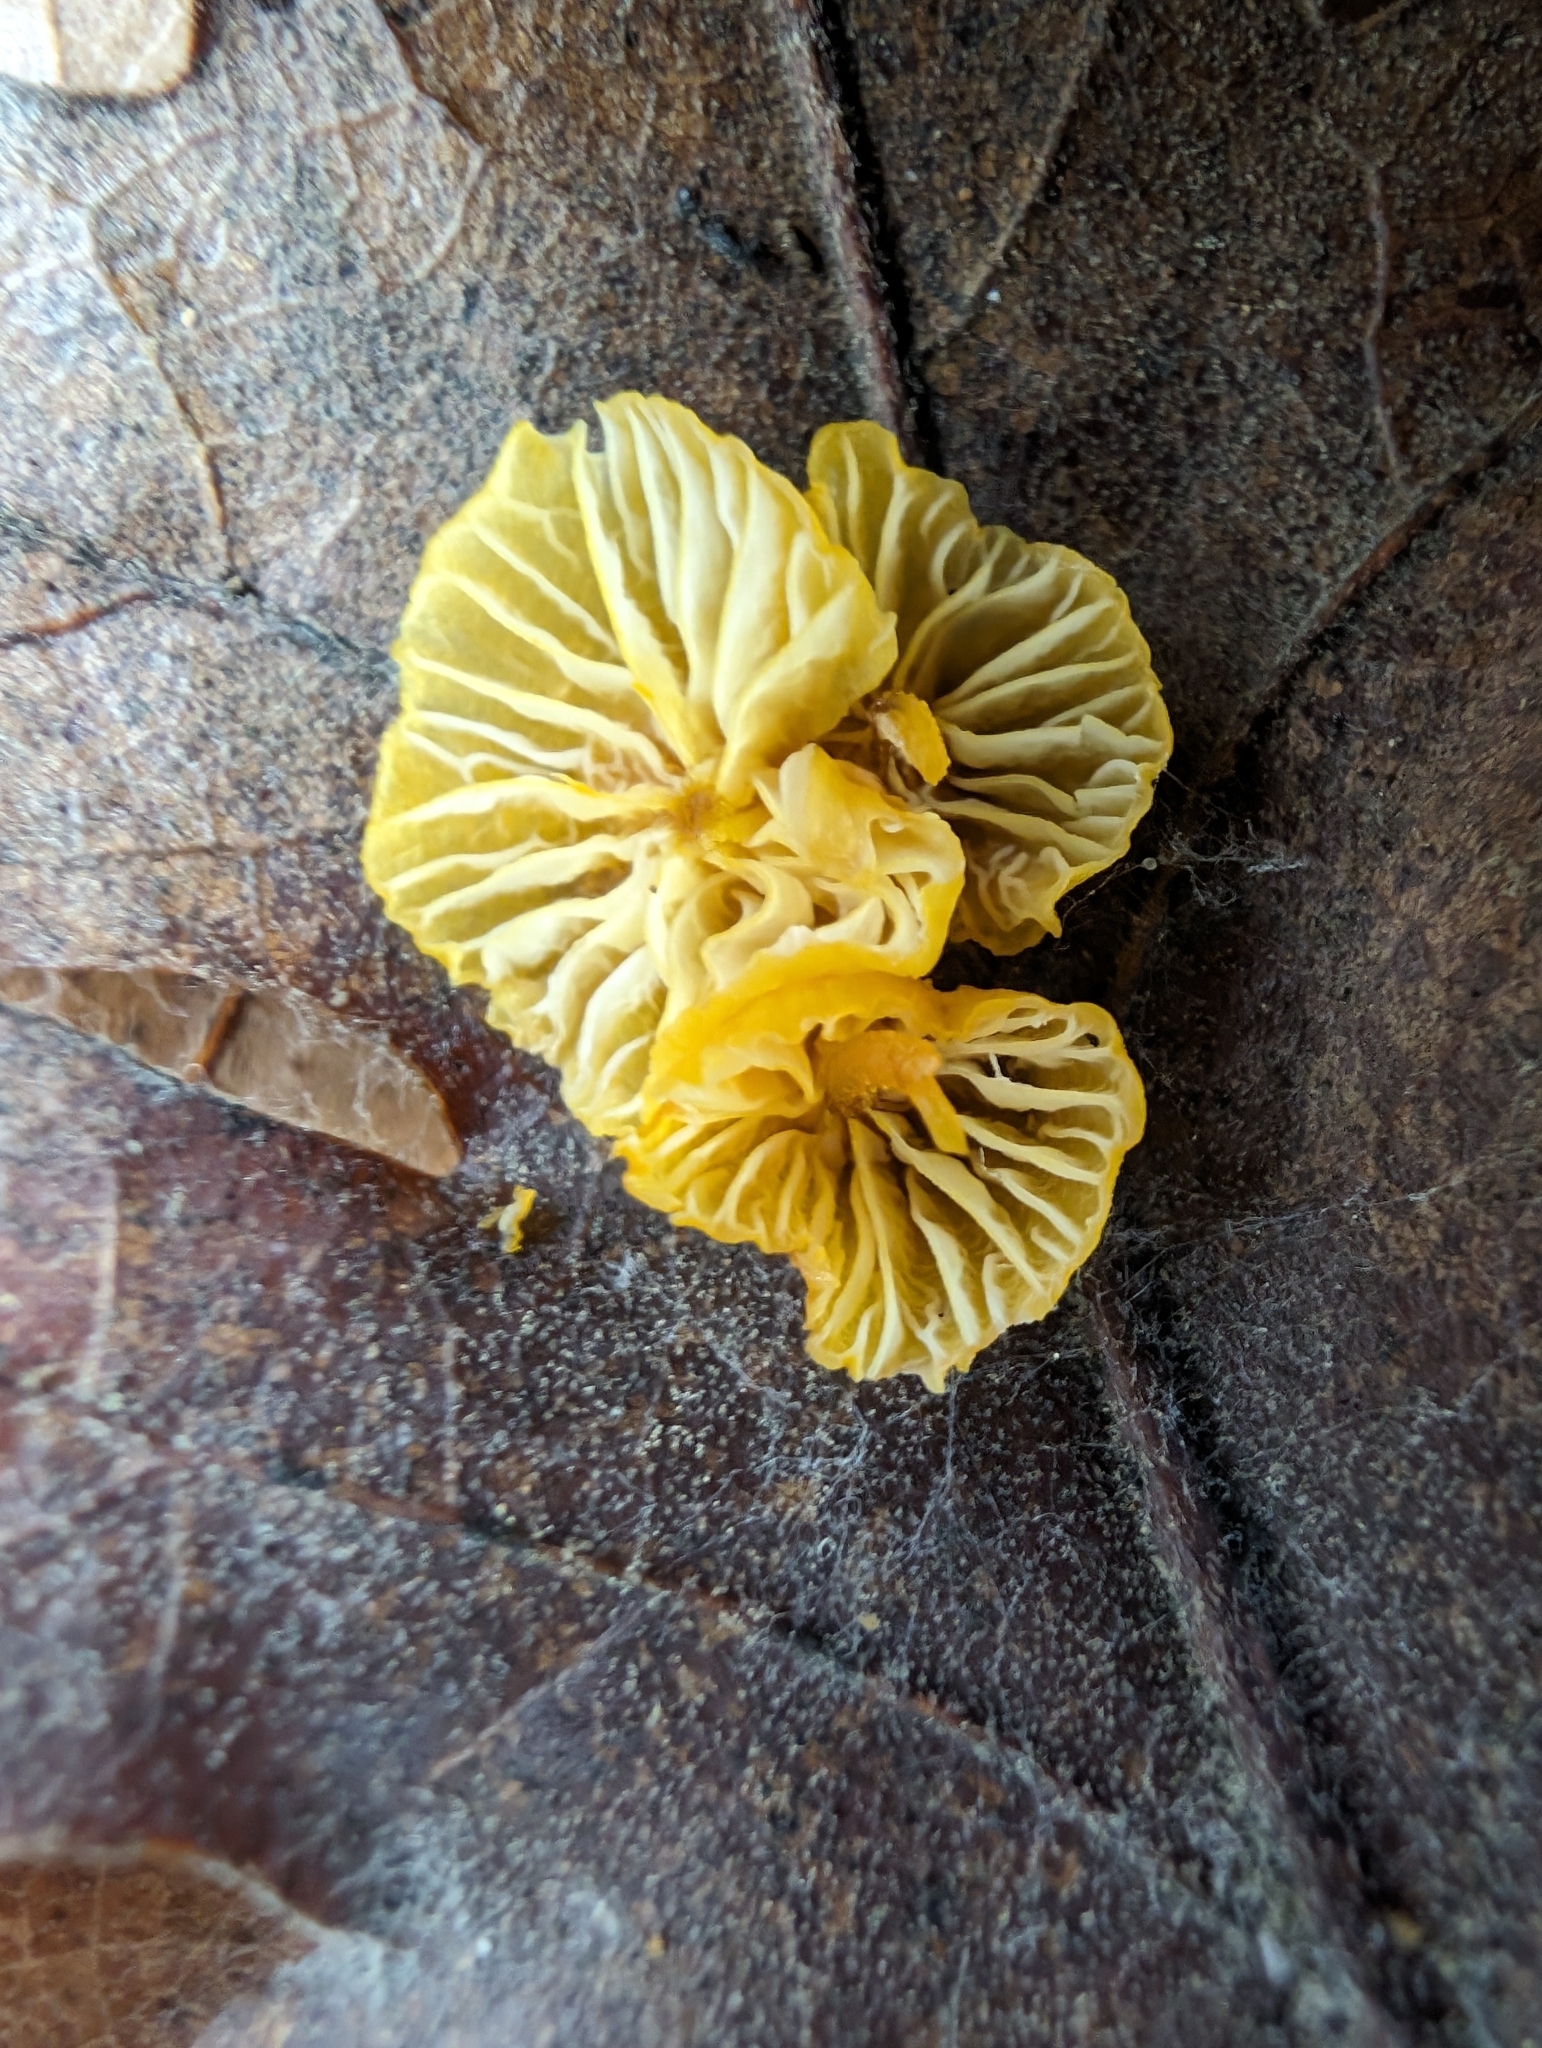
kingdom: Fungi
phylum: Basidiomycota
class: Agaricomycetes
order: Agaricales
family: Mycenaceae
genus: Mycena
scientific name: Mycena oregonensis
